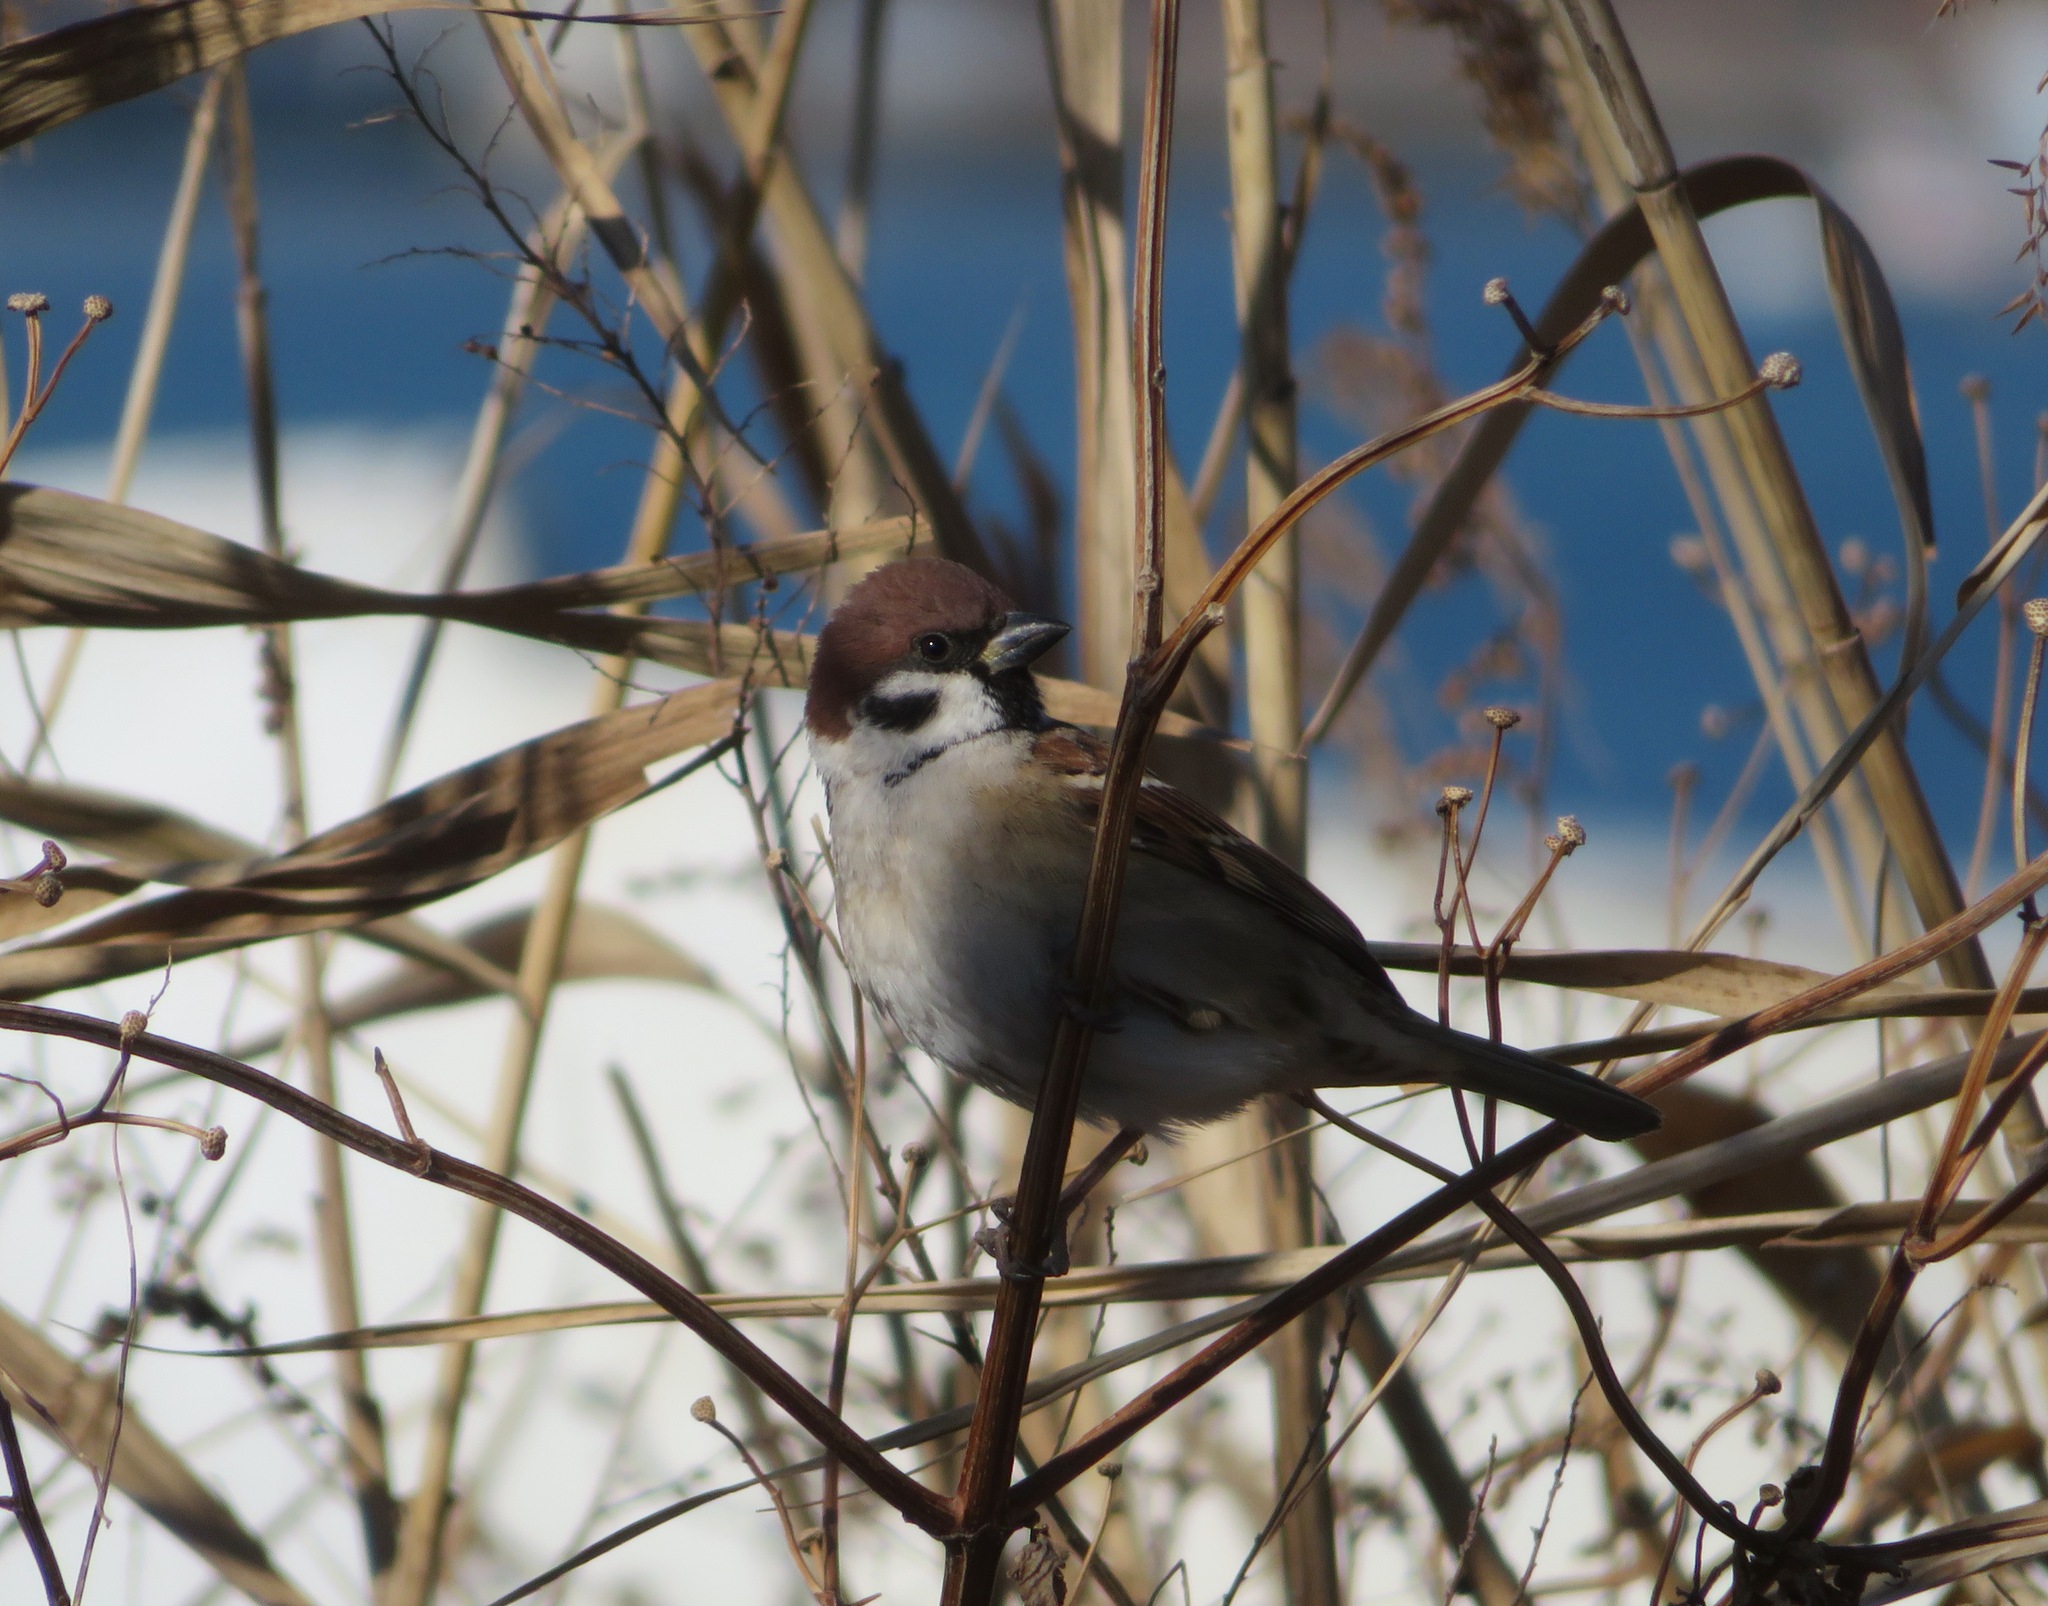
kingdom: Animalia
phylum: Chordata
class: Aves
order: Passeriformes
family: Passeridae
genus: Passer
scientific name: Passer montanus
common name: Eurasian tree sparrow
